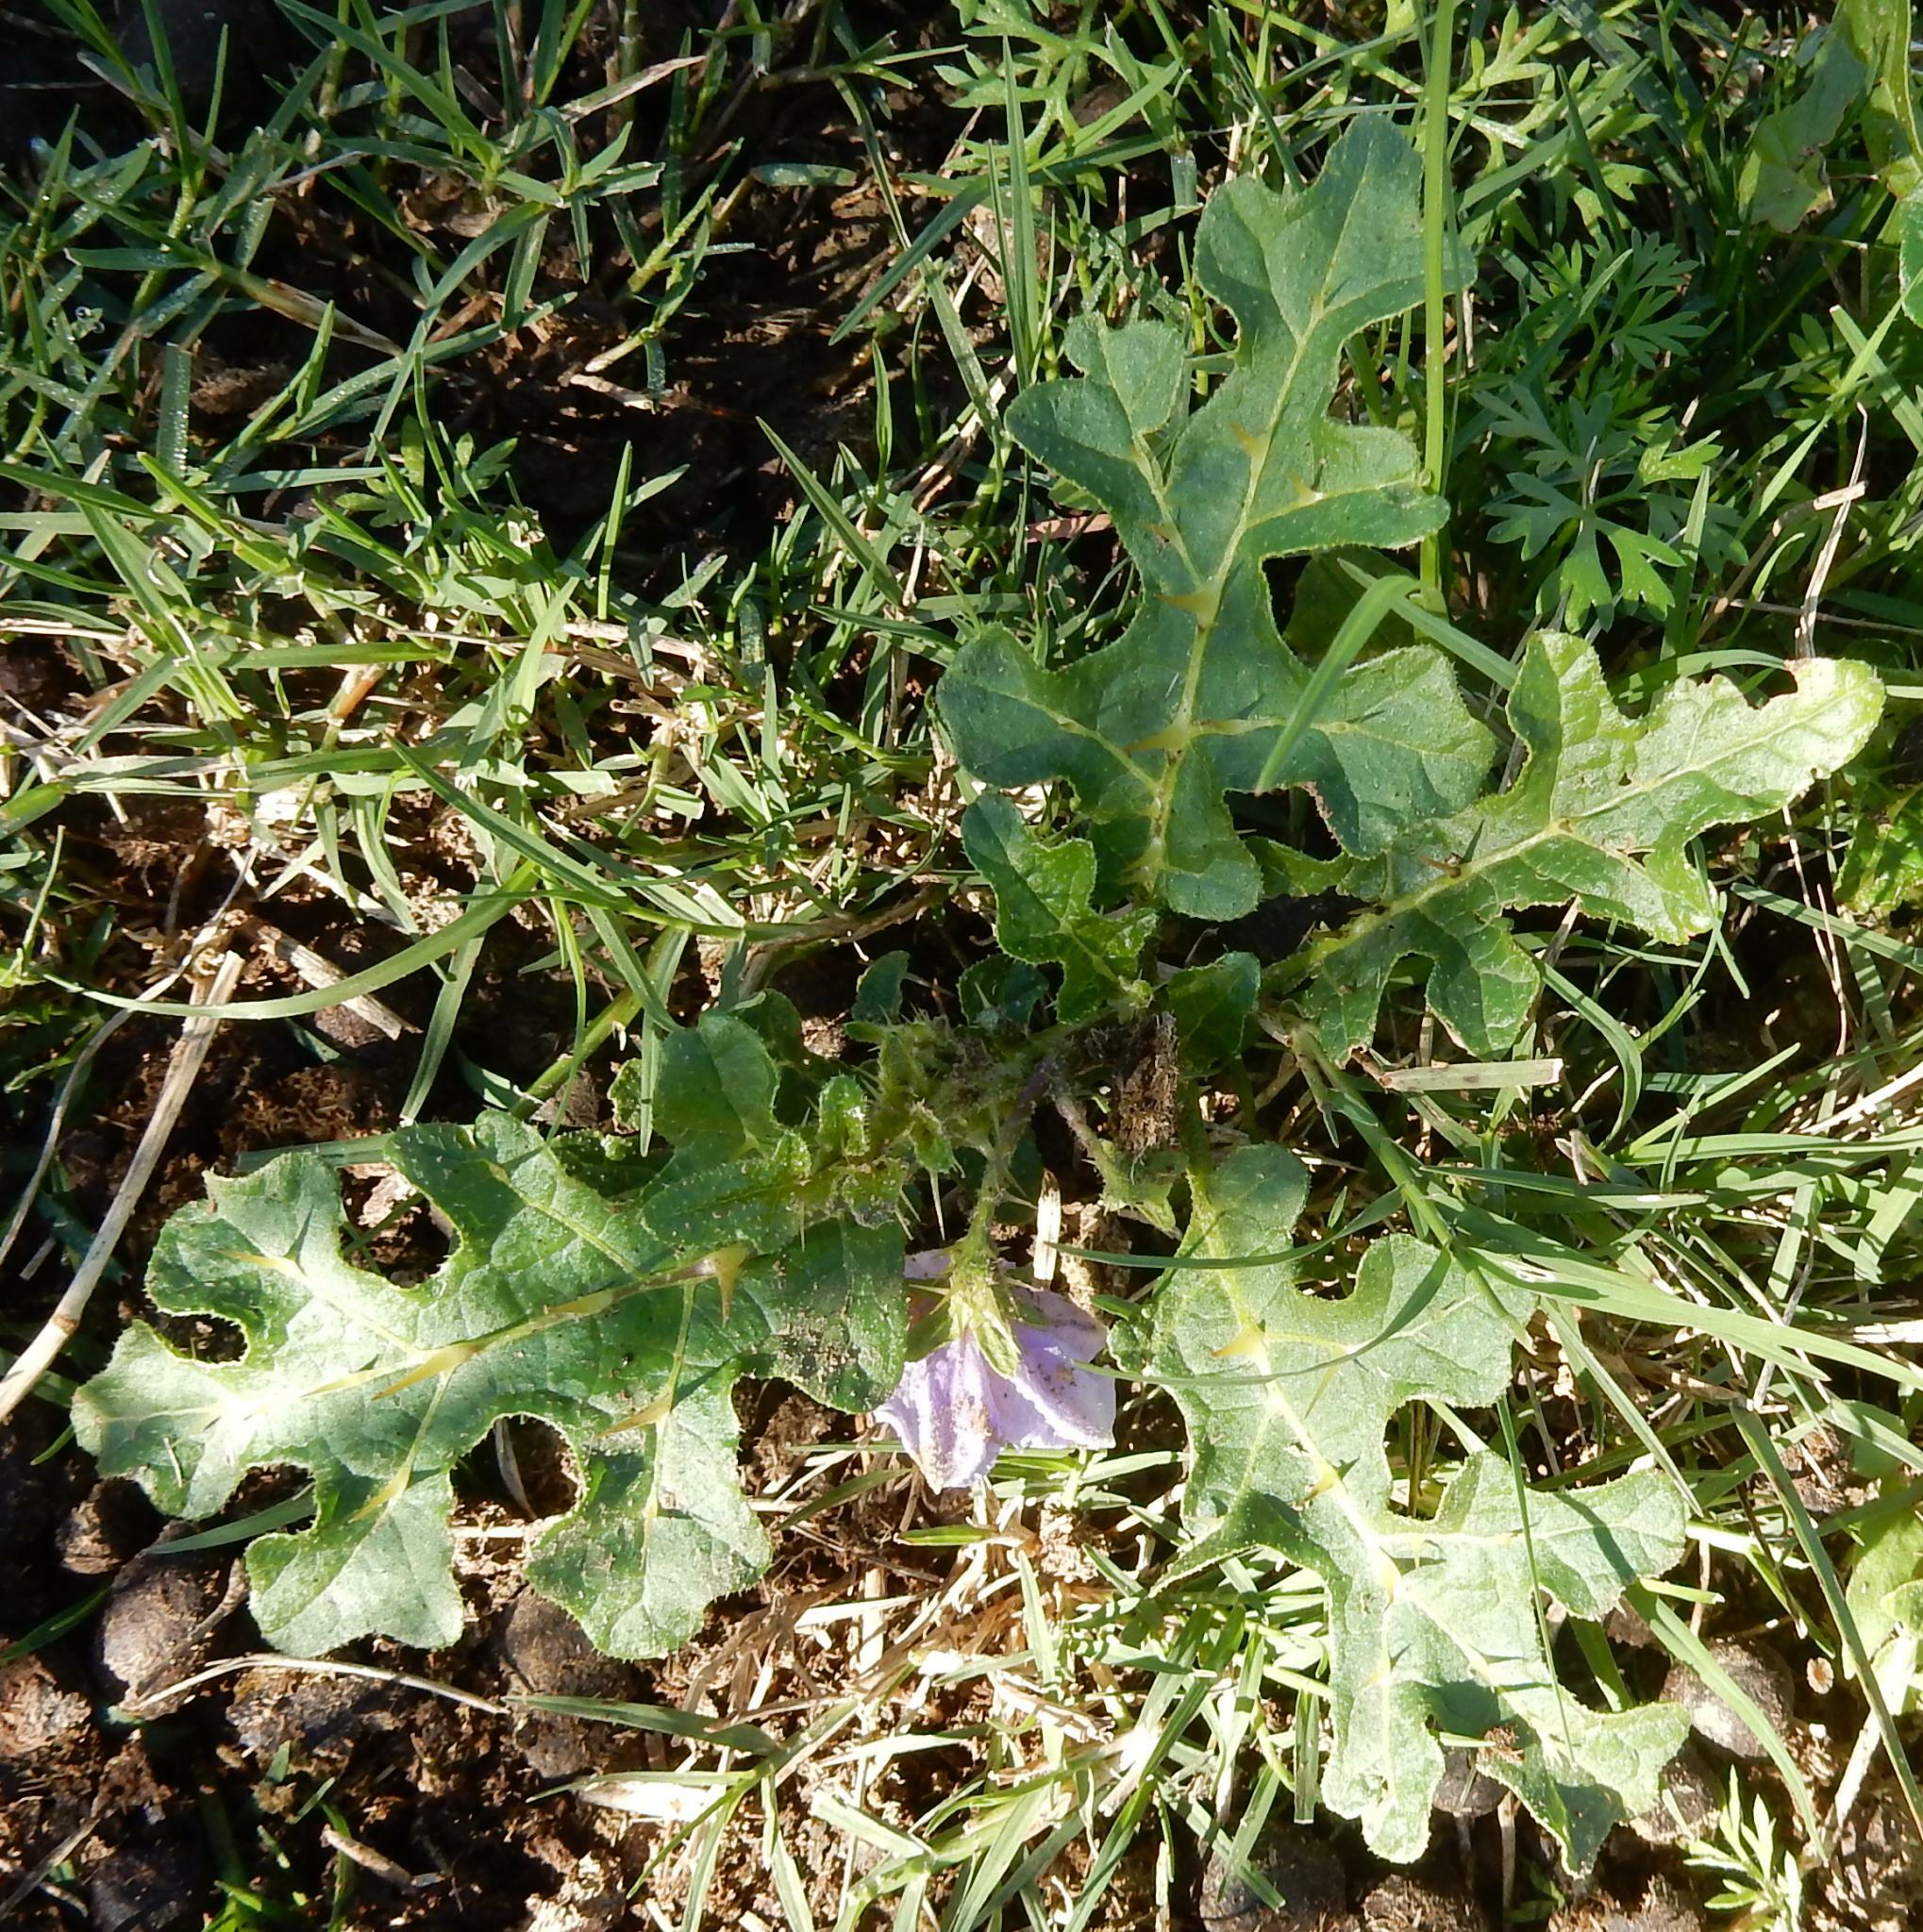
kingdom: Plantae
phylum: Tracheophyta
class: Magnoliopsida
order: Solanales
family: Solanaceae
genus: Solanum
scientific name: Solanum linnaeanum
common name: Nightshade
